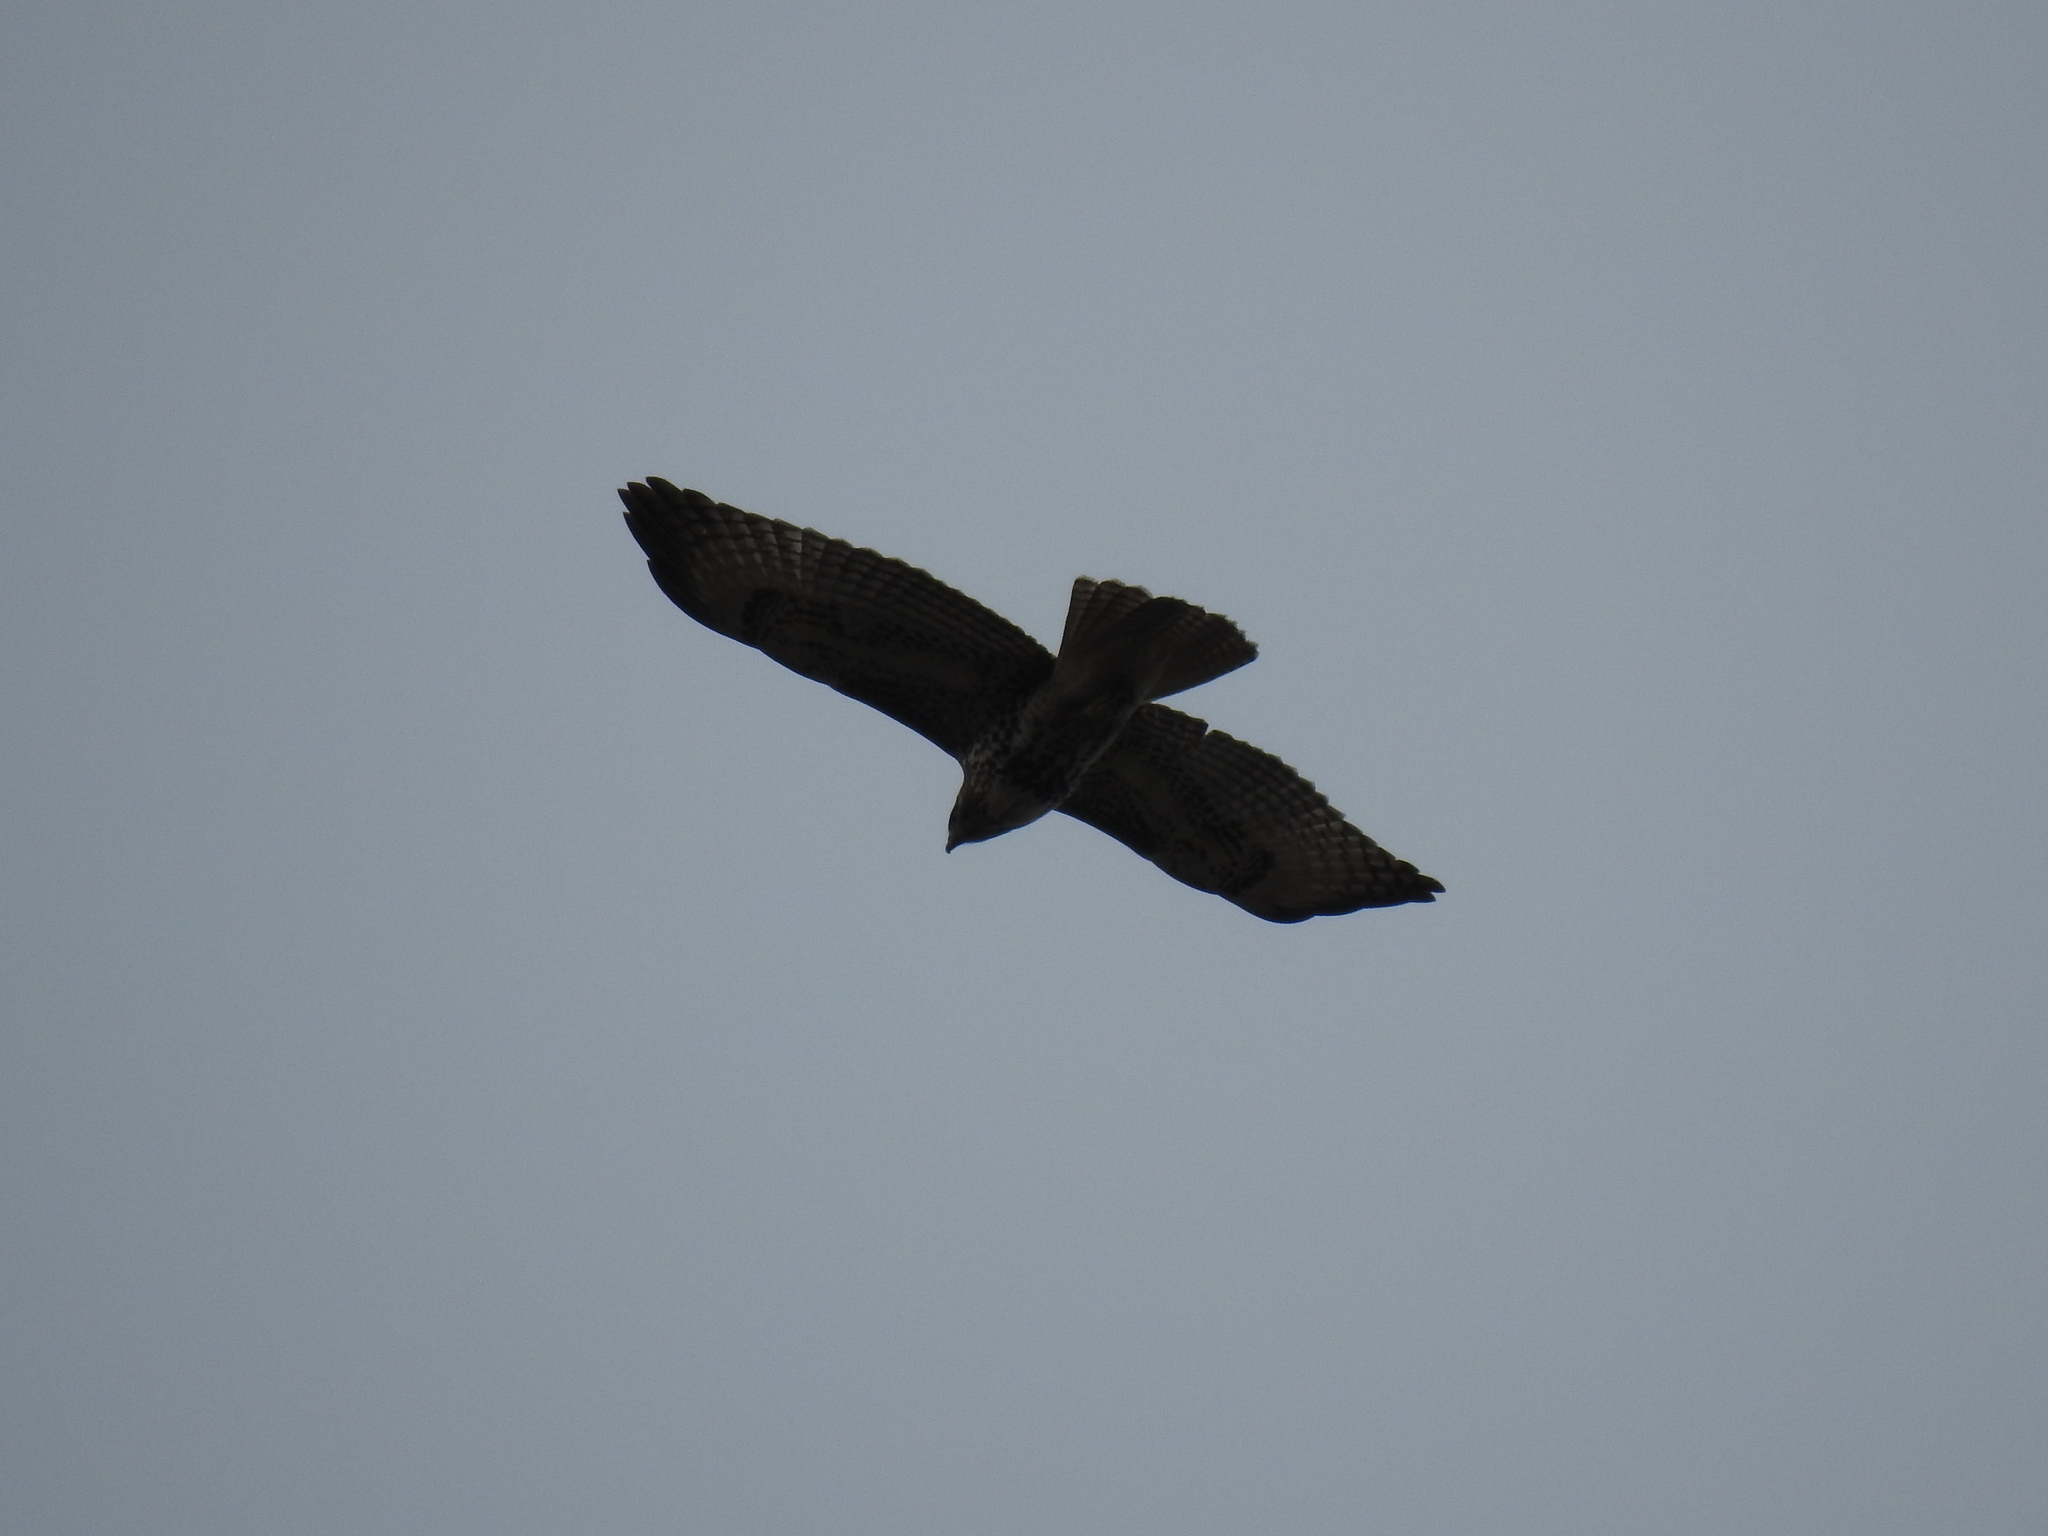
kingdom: Animalia
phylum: Chordata
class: Aves
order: Accipitriformes
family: Accipitridae
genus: Buteo
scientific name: Buteo jamaicensis
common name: Red-tailed hawk
